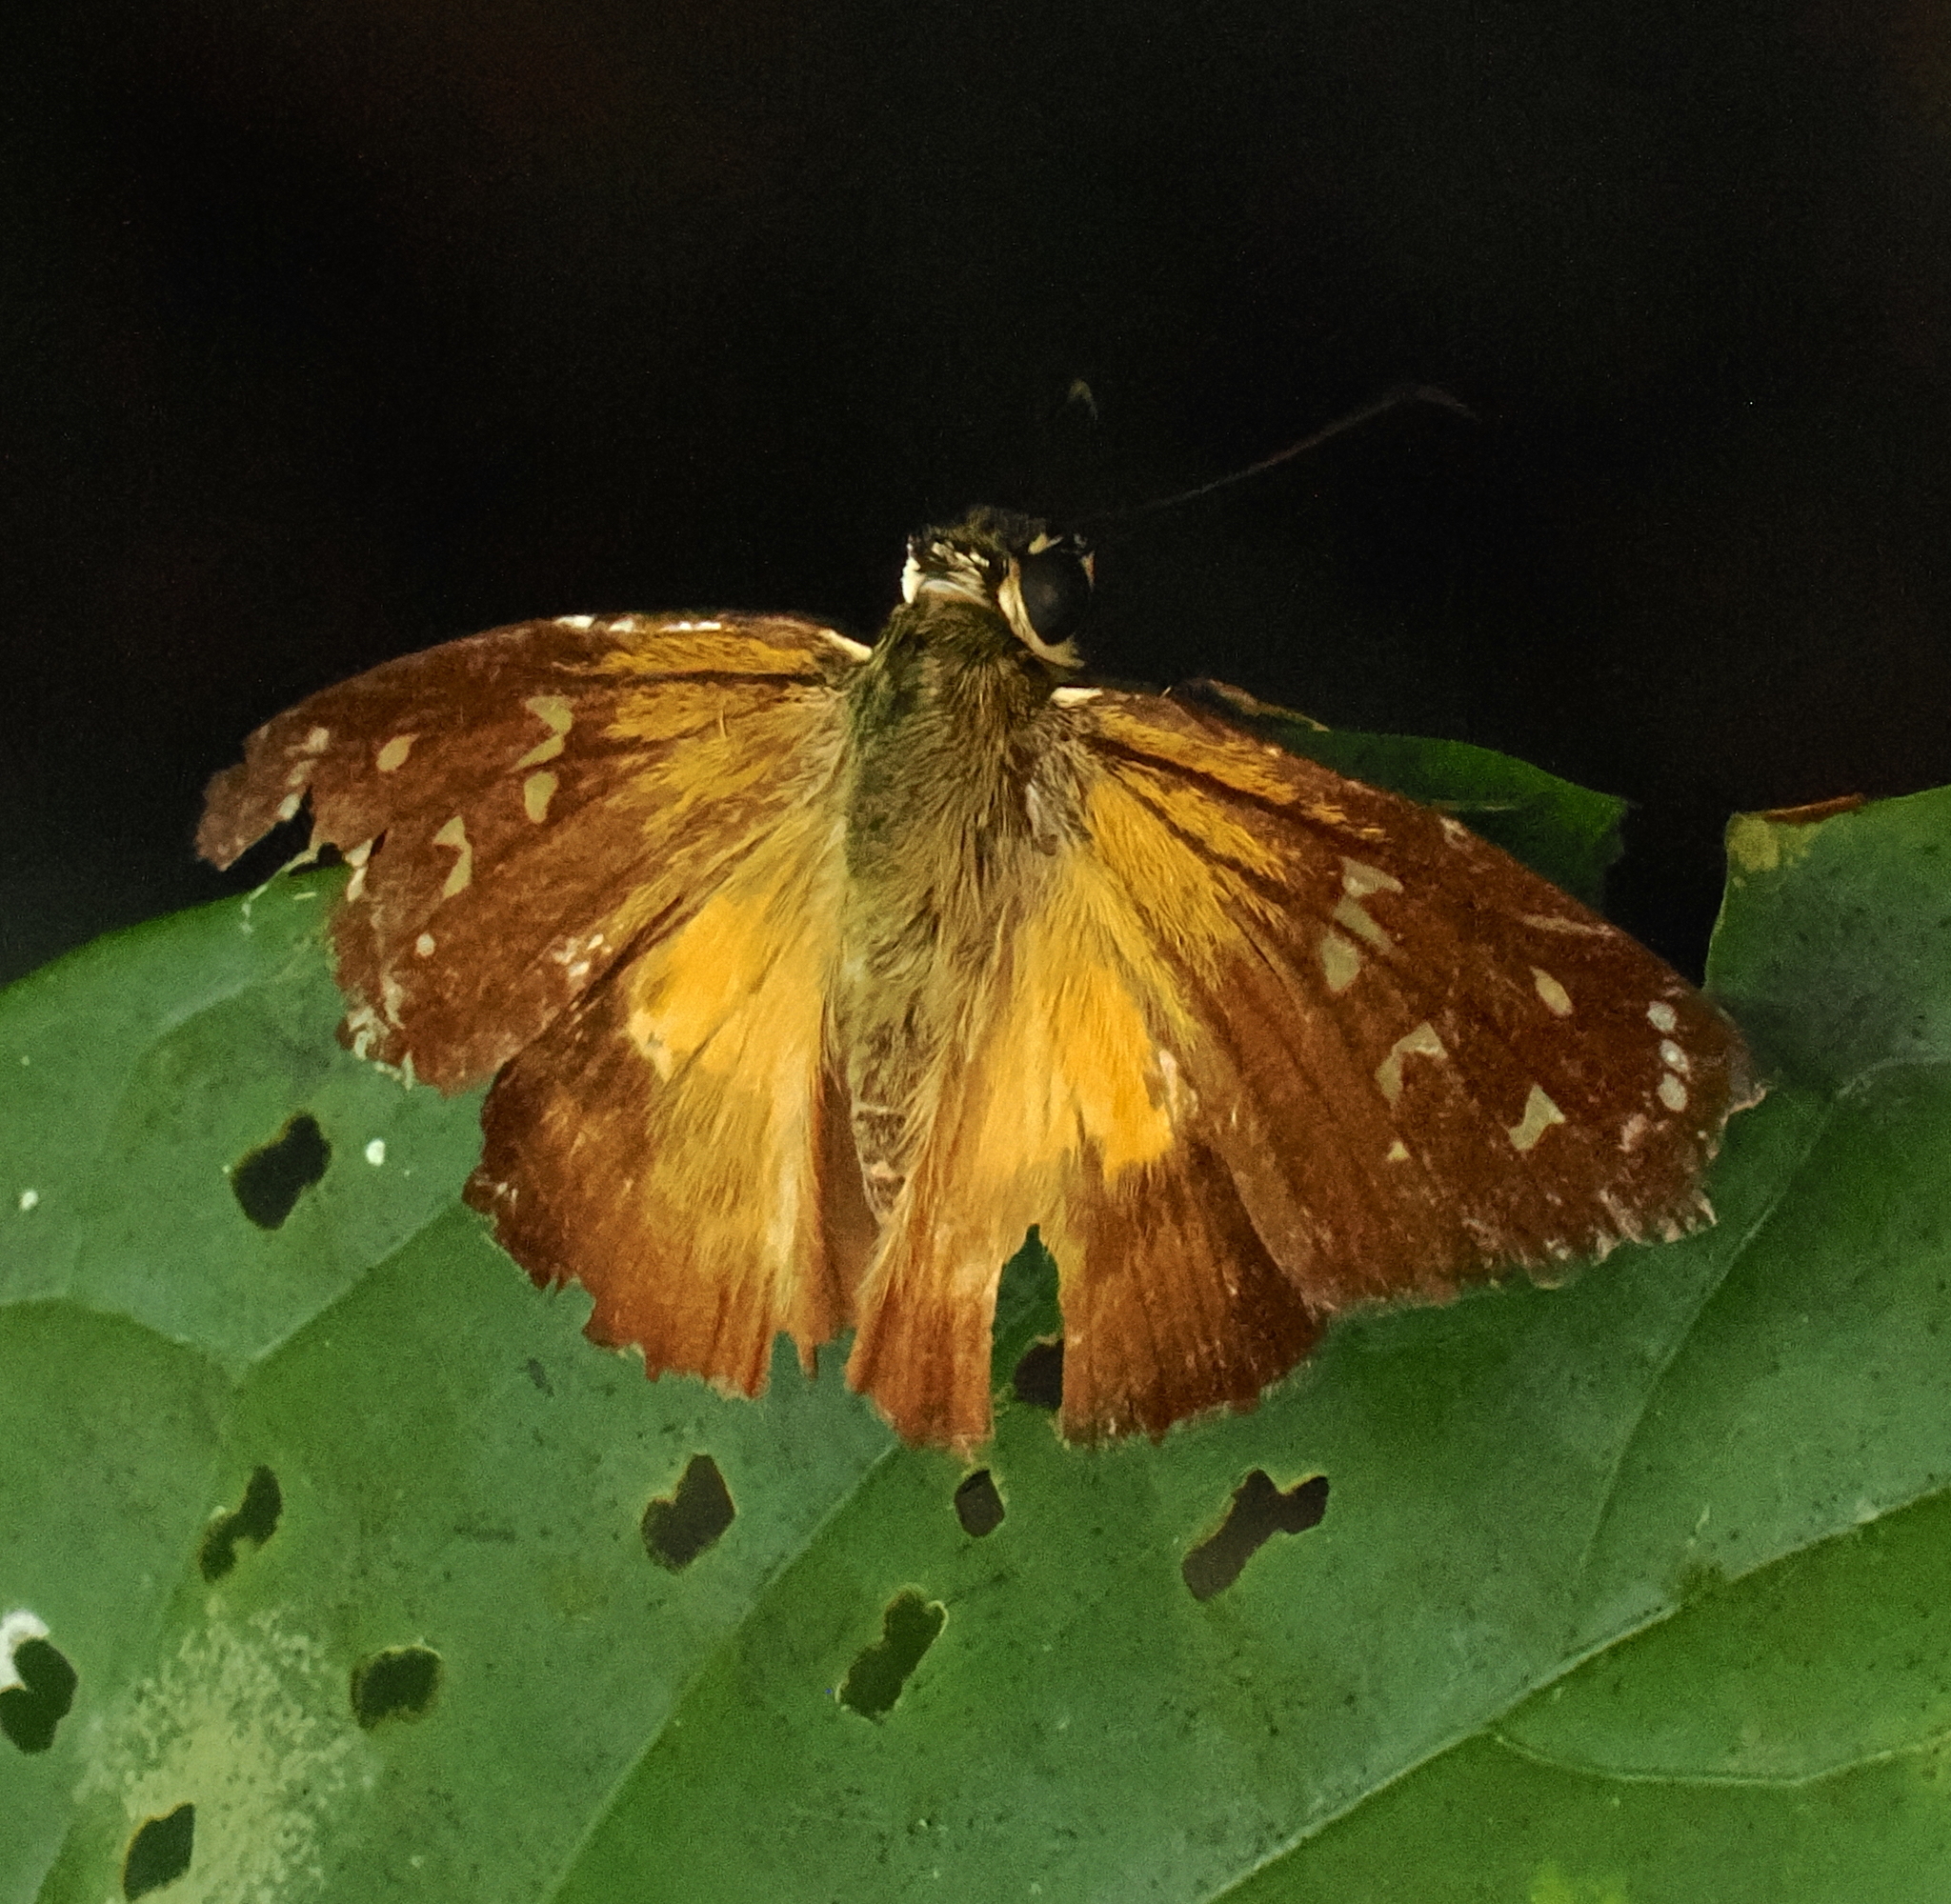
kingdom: Animalia
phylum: Arthropoda
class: Insecta
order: Lepidoptera
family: Hesperiidae
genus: Augiades
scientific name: Augiades crinisus
